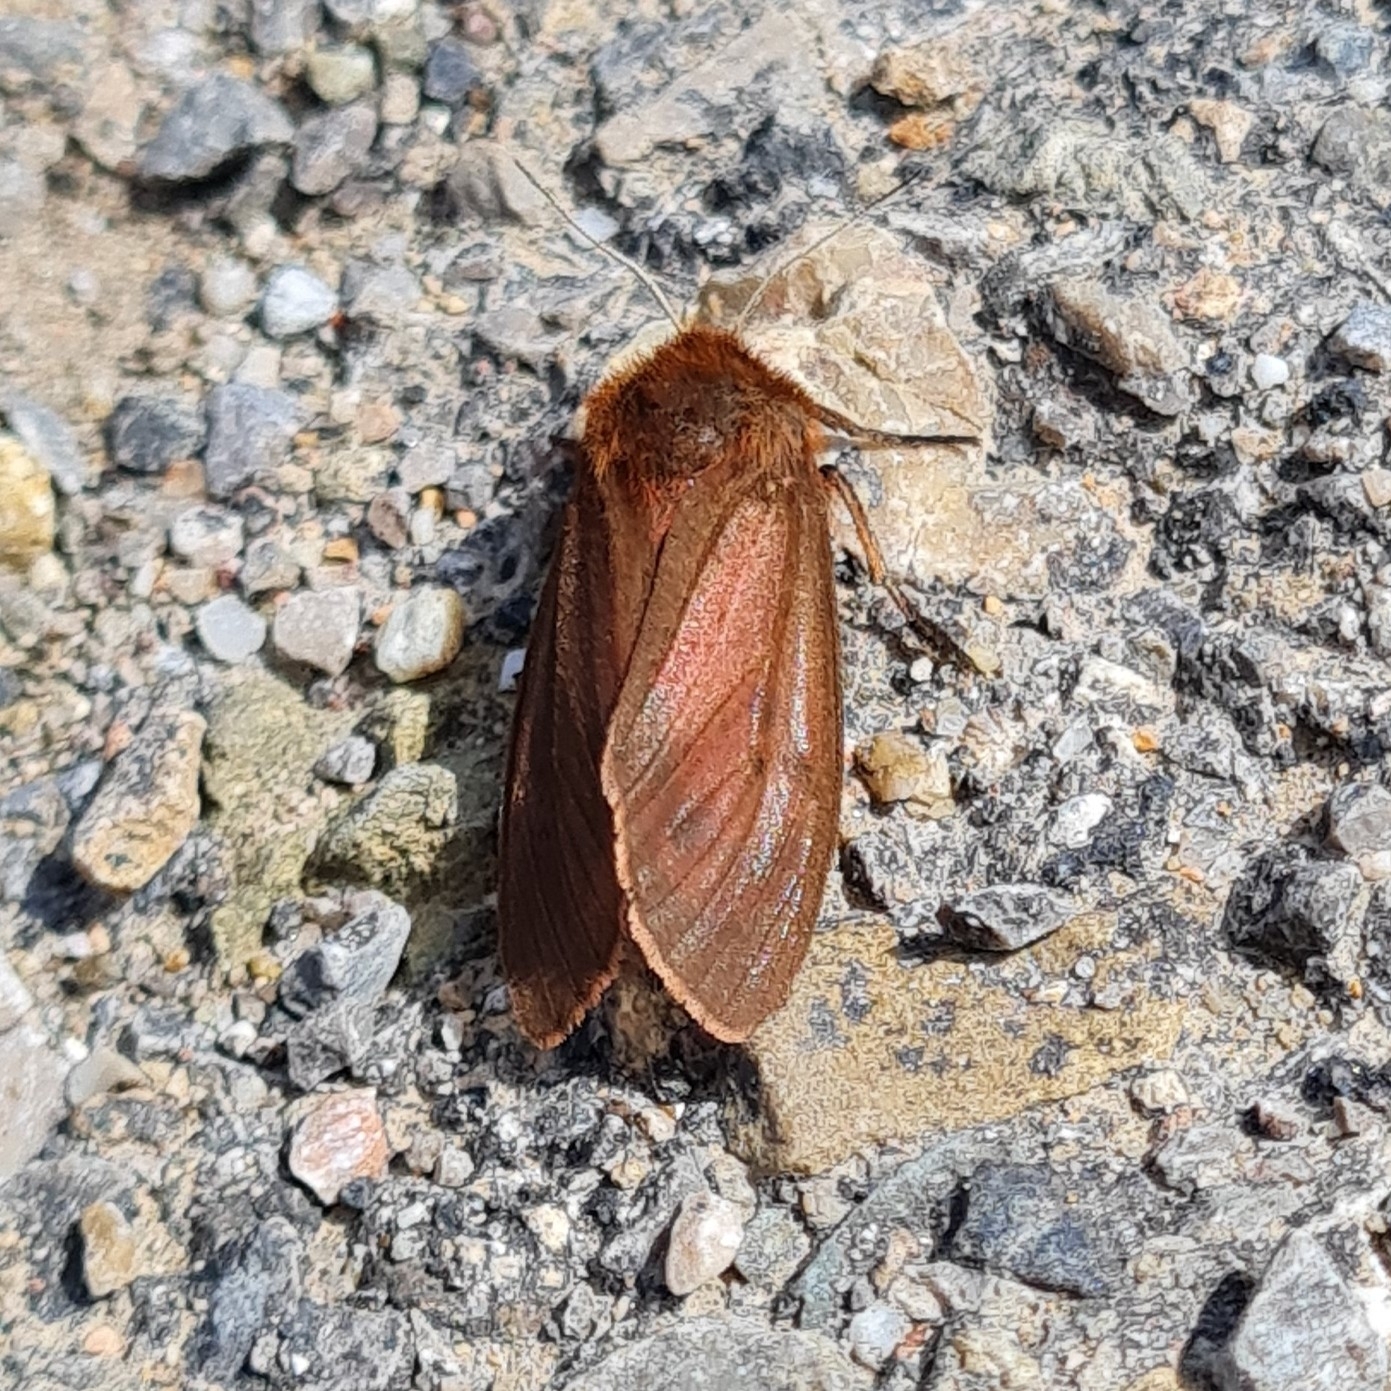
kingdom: Animalia
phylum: Arthropoda
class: Insecta
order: Lepidoptera
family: Erebidae
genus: Phragmatobia
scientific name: Phragmatobia fuliginosa
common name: Ruby tiger
